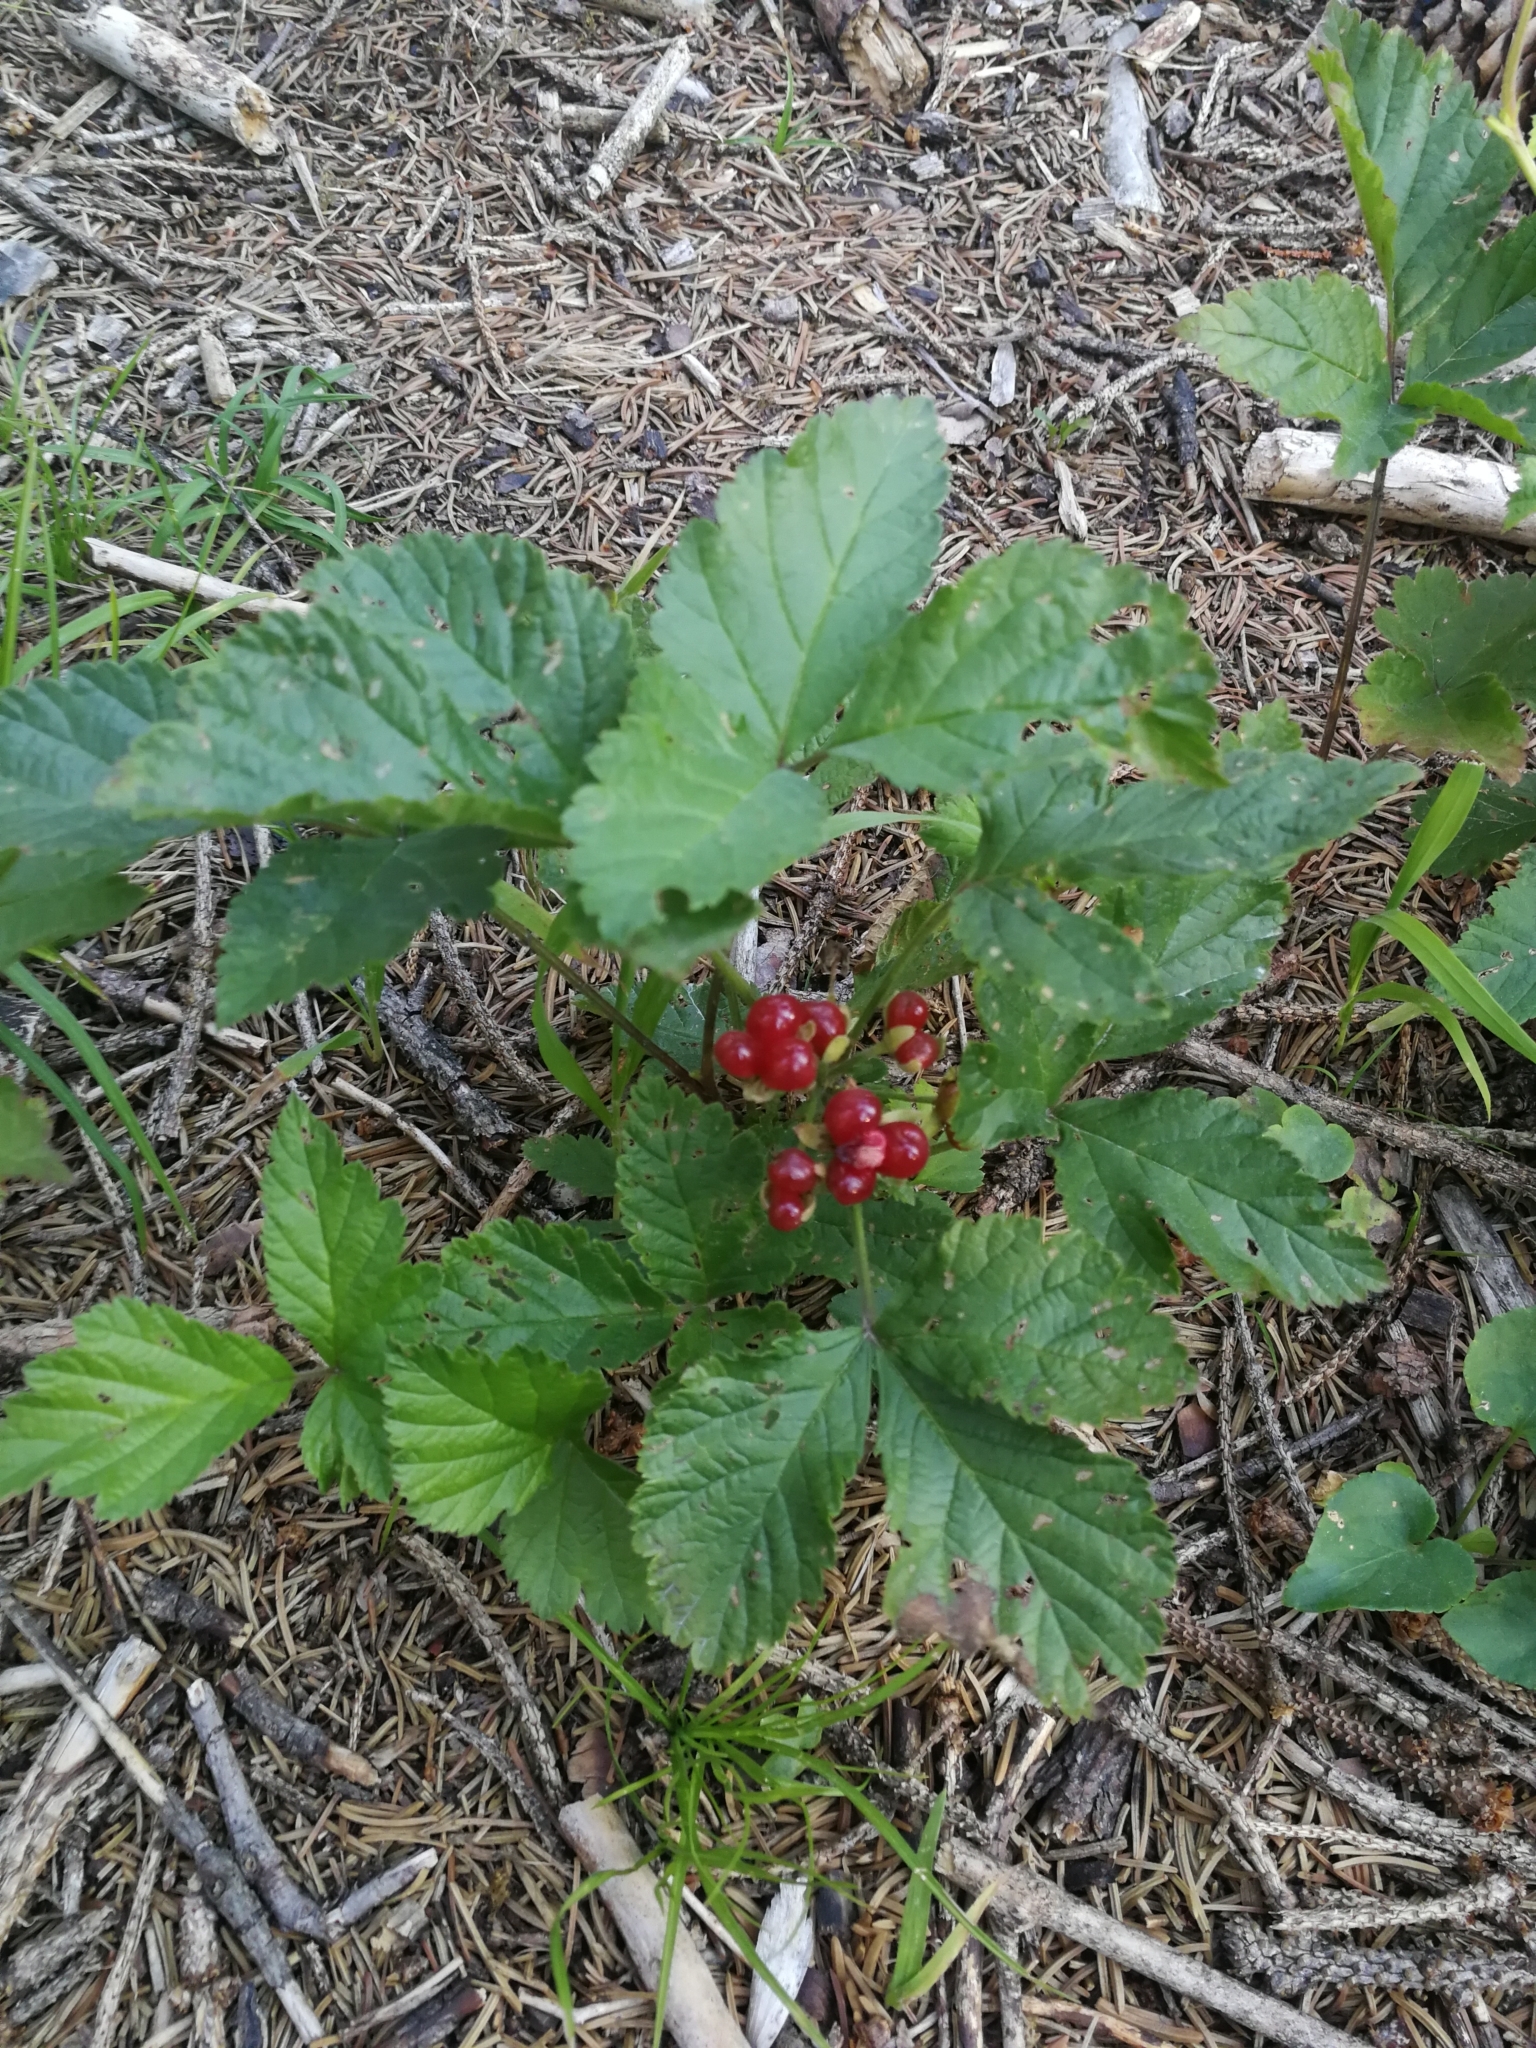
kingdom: Plantae
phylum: Tracheophyta
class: Magnoliopsida
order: Rosales
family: Rosaceae
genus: Rubus
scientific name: Rubus saxatilis
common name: Stone bramble
